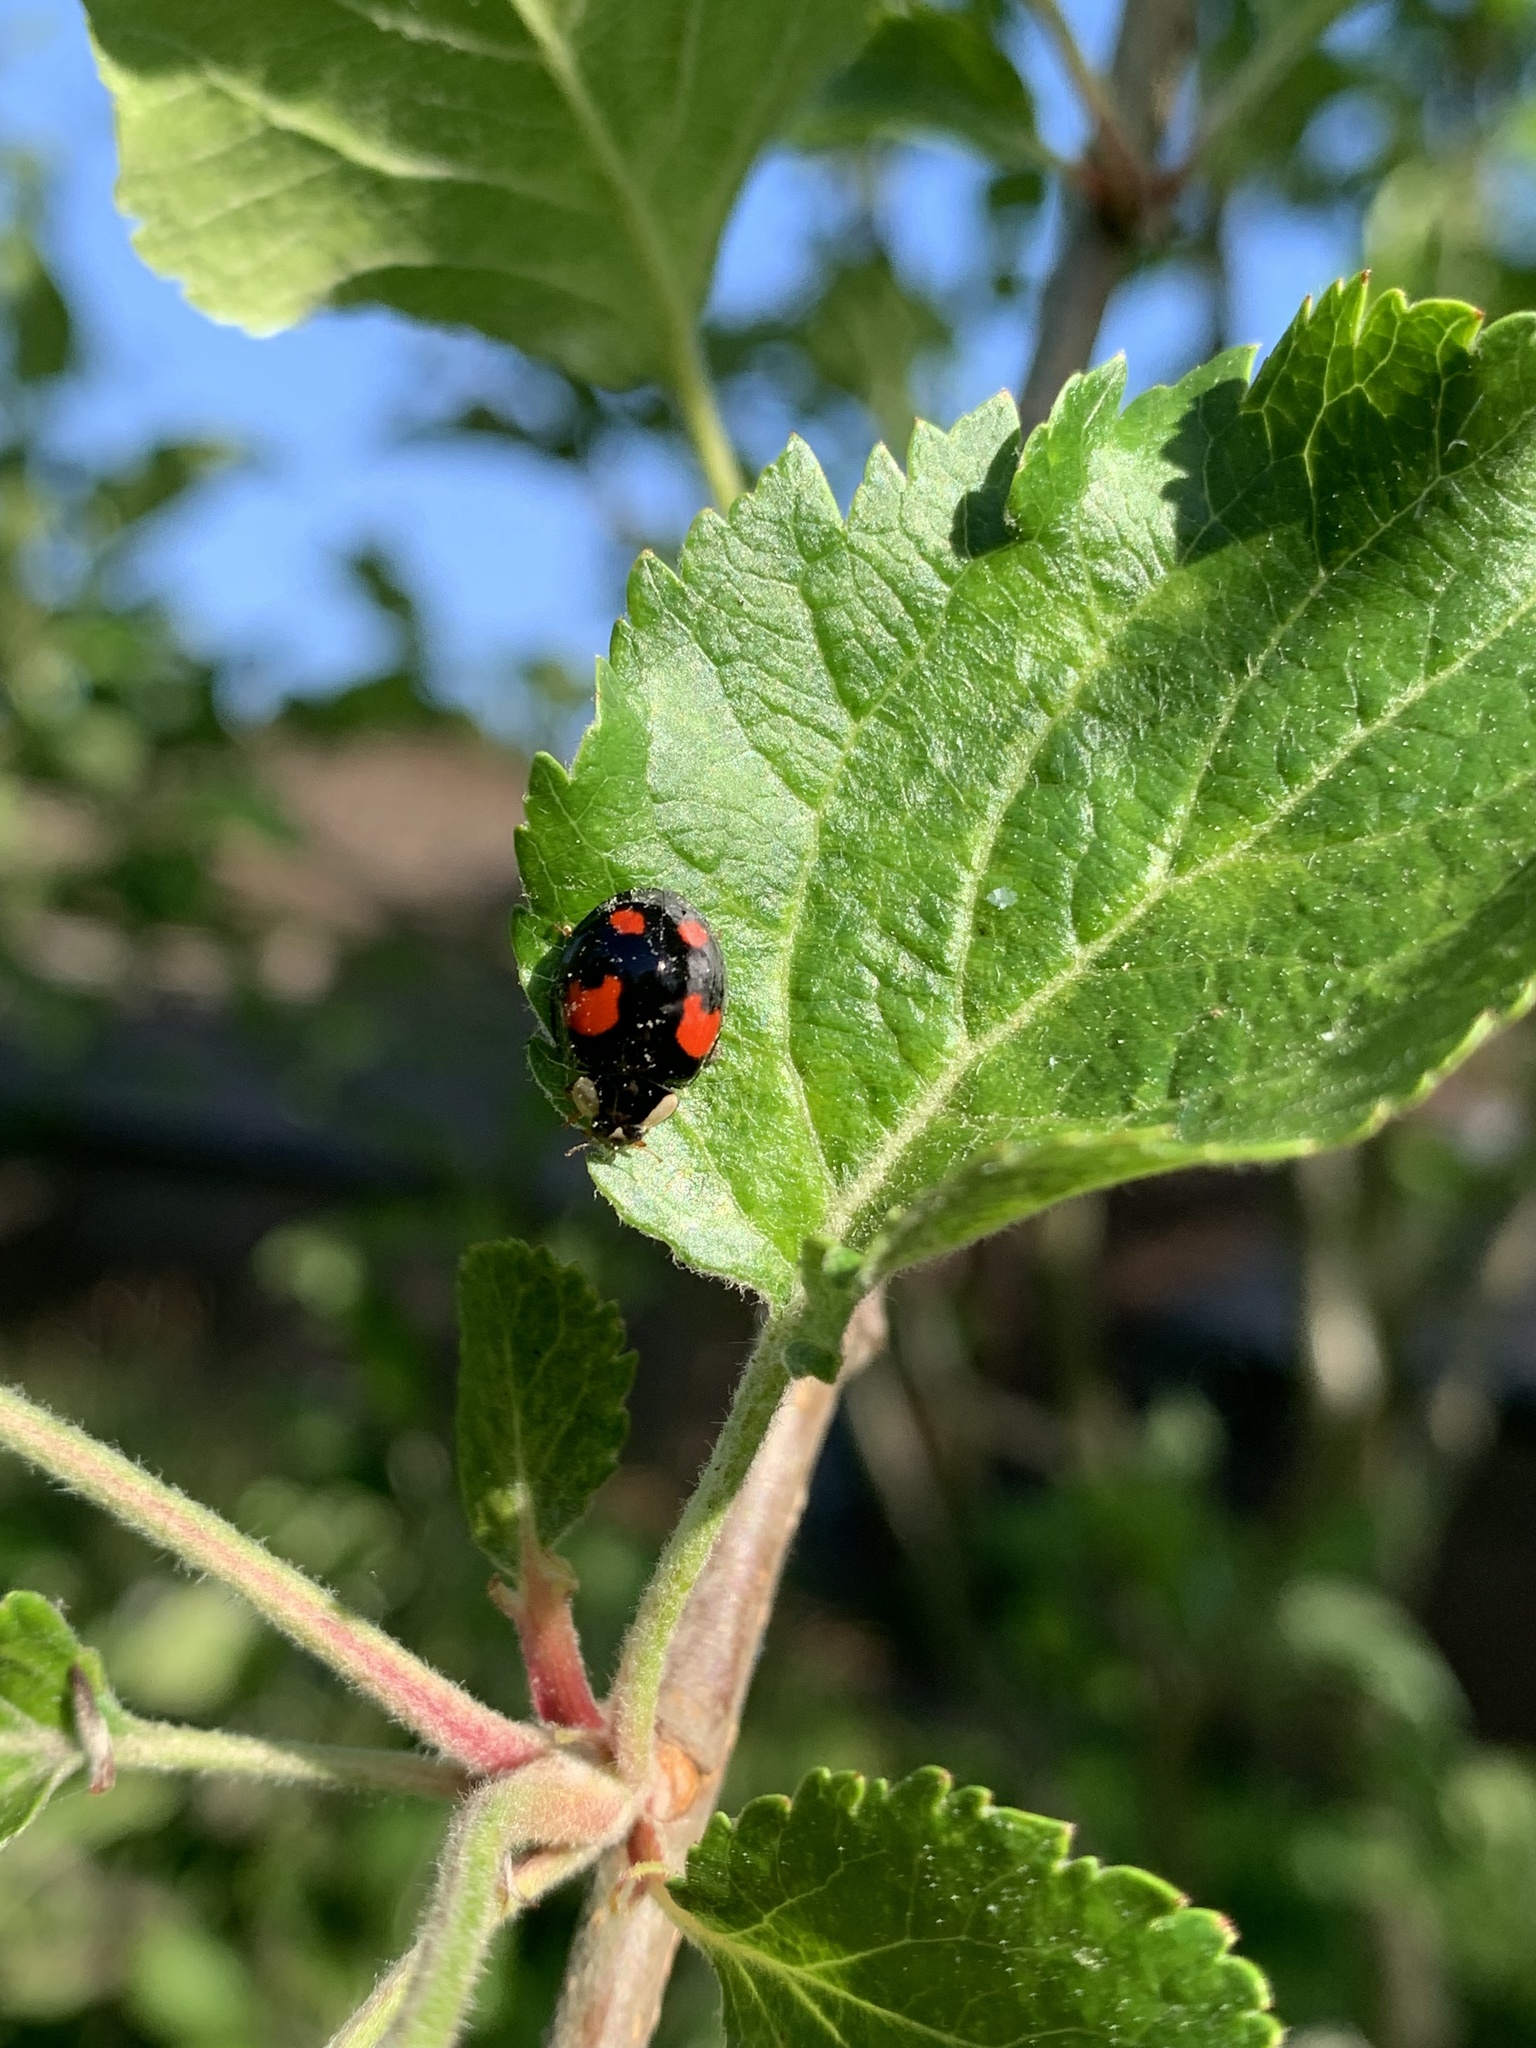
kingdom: Animalia
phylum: Arthropoda
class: Insecta
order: Coleoptera
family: Coccinellidae
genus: Harmonia
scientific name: Harmonia axyridis
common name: Harlequin ladybird
